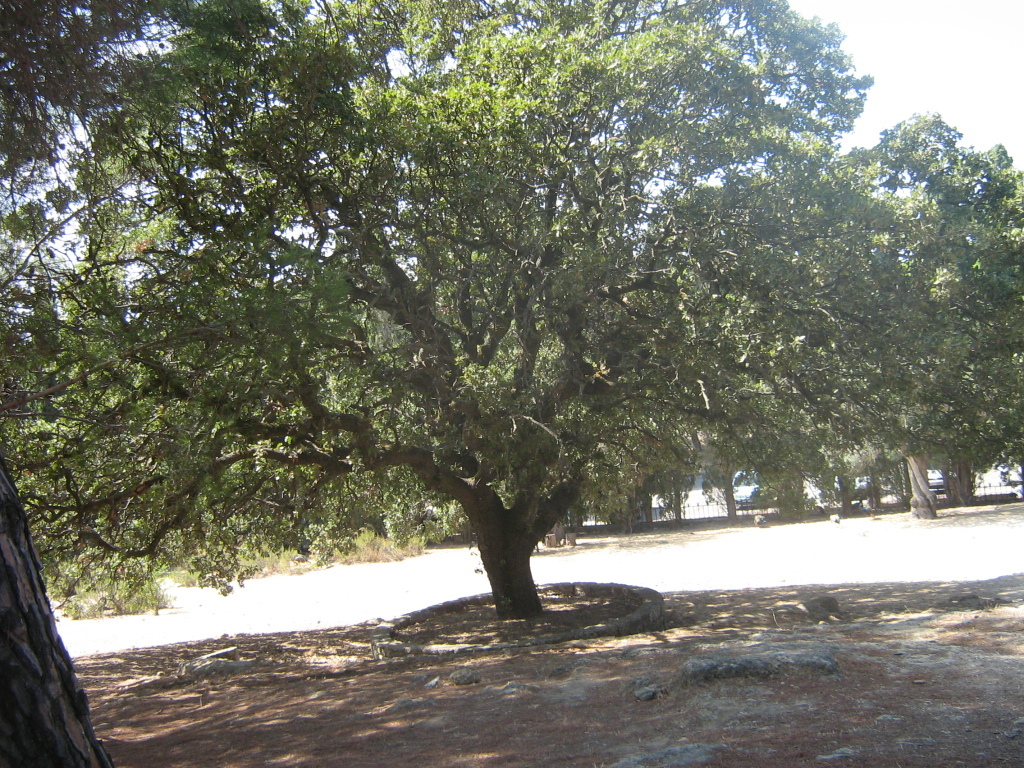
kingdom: Plantae
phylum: Tracheophyta
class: Magnoliopsida
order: Fagales
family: Fagaceae
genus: Quercus
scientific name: Quercus ithaburensis
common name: Tabor oak
